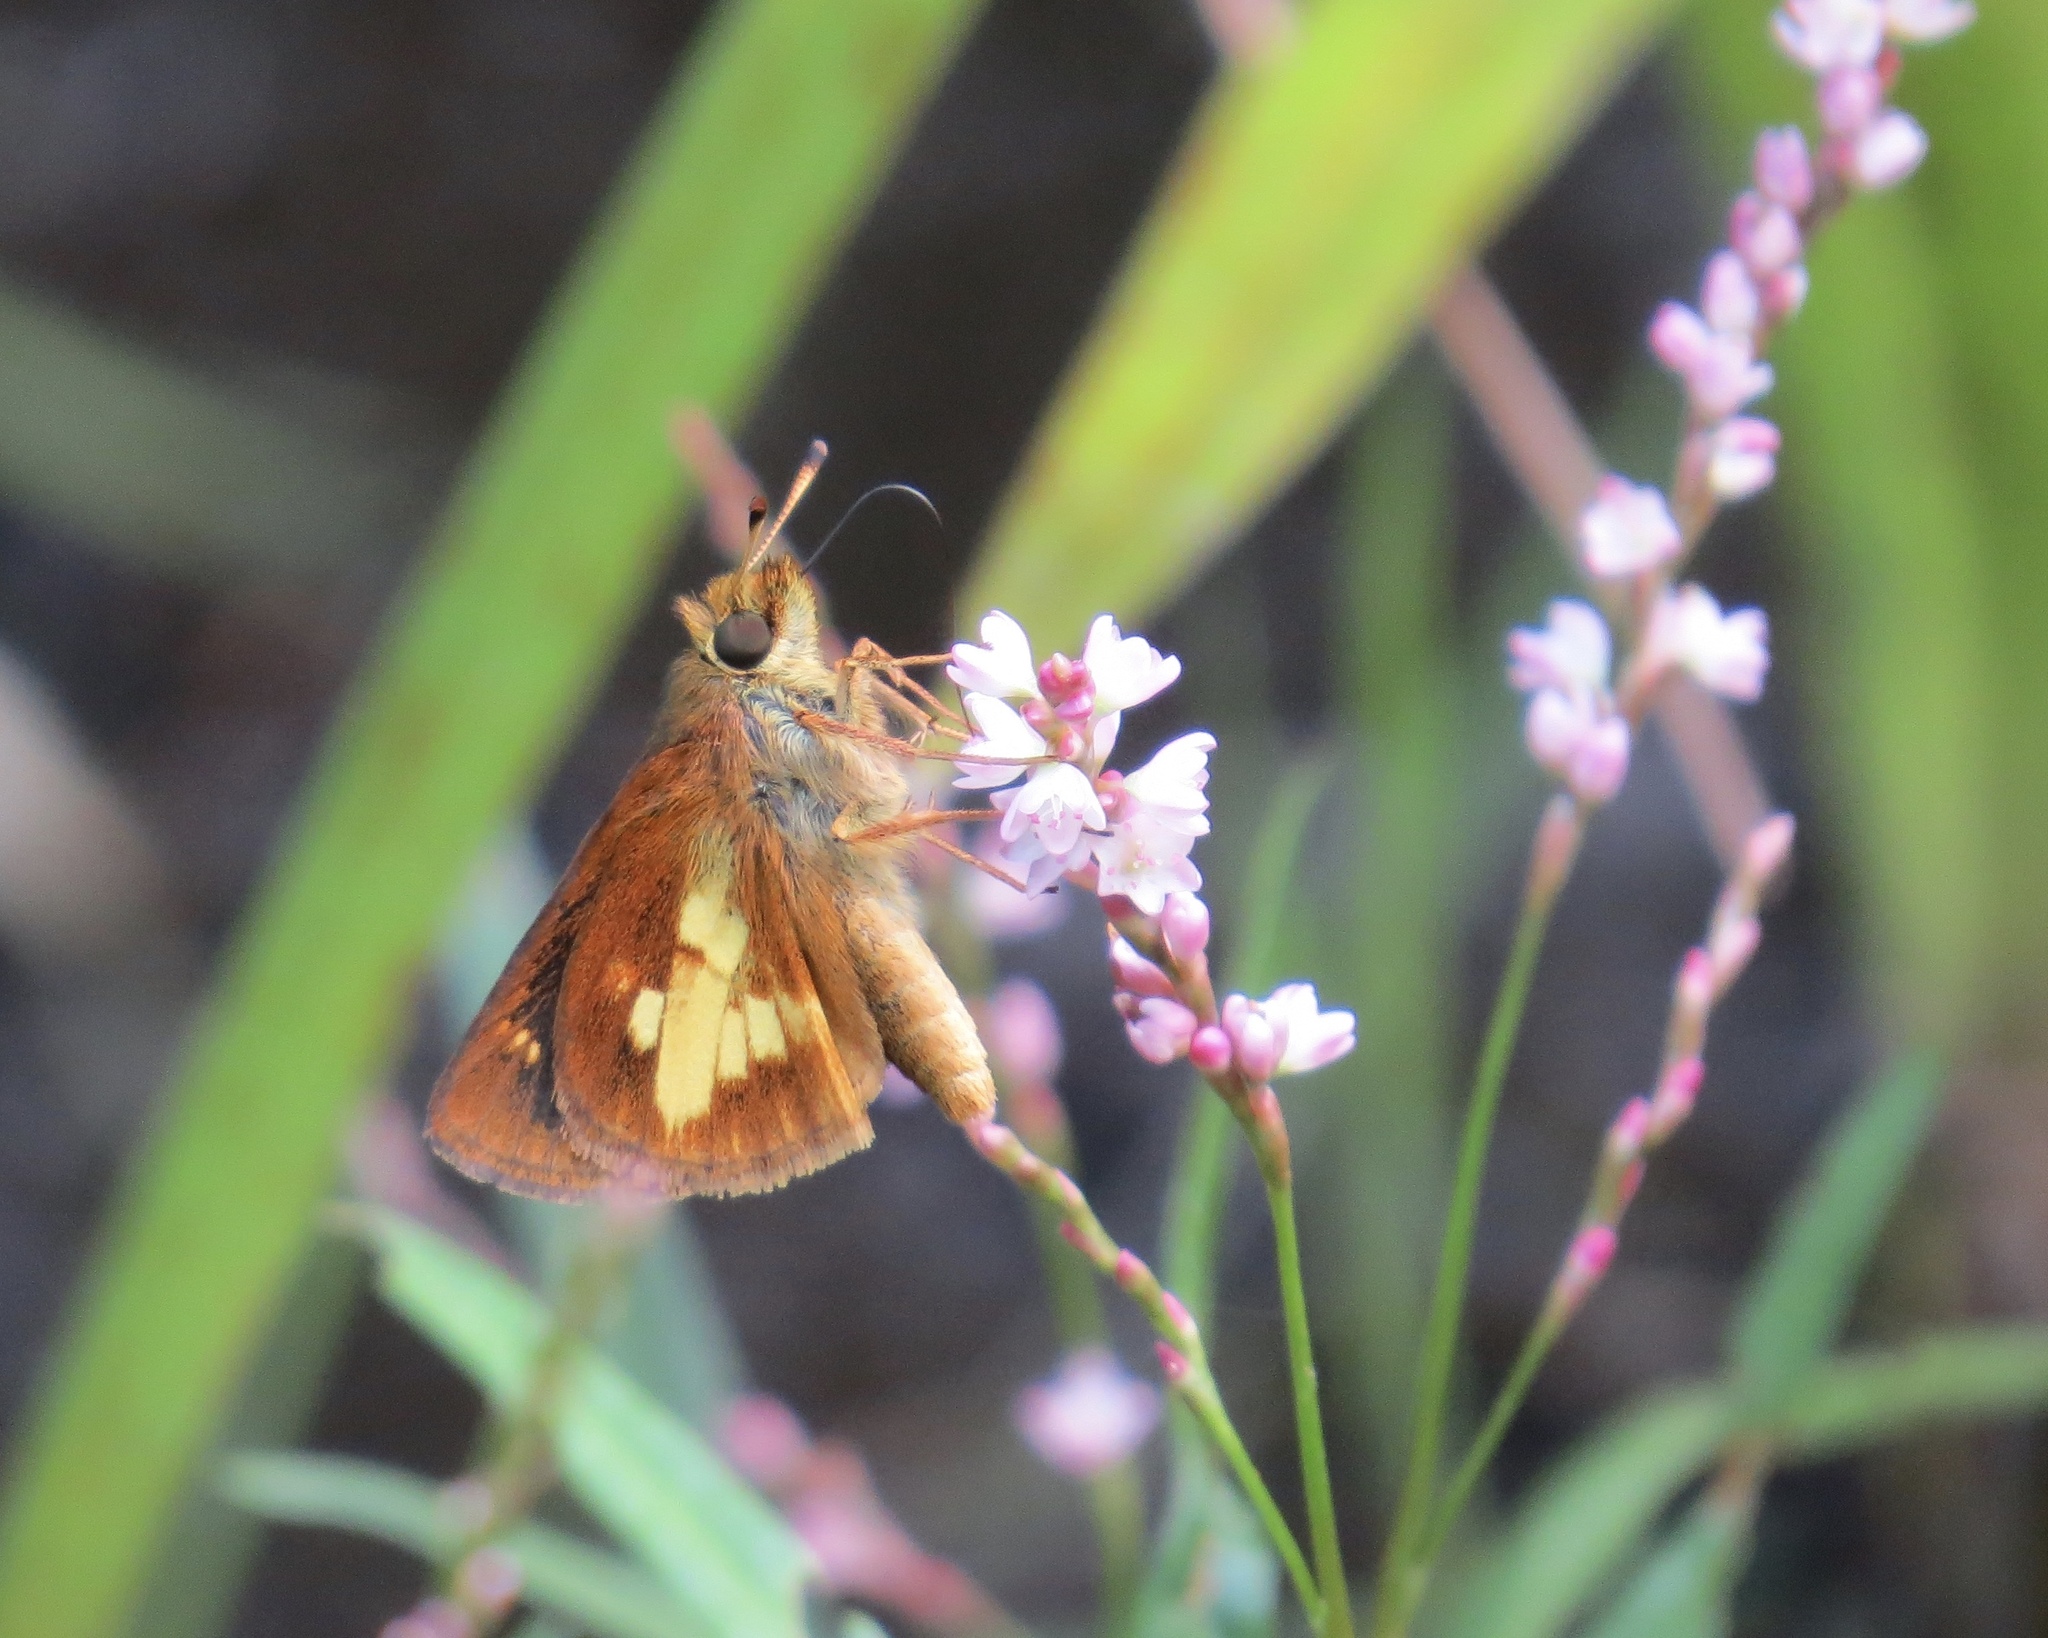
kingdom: Animalia
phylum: Arthropoda
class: Insecta
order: Lepidoptera
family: Hesperiidae
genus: Poanes
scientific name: Poanes massasoit
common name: Mulberrywing
